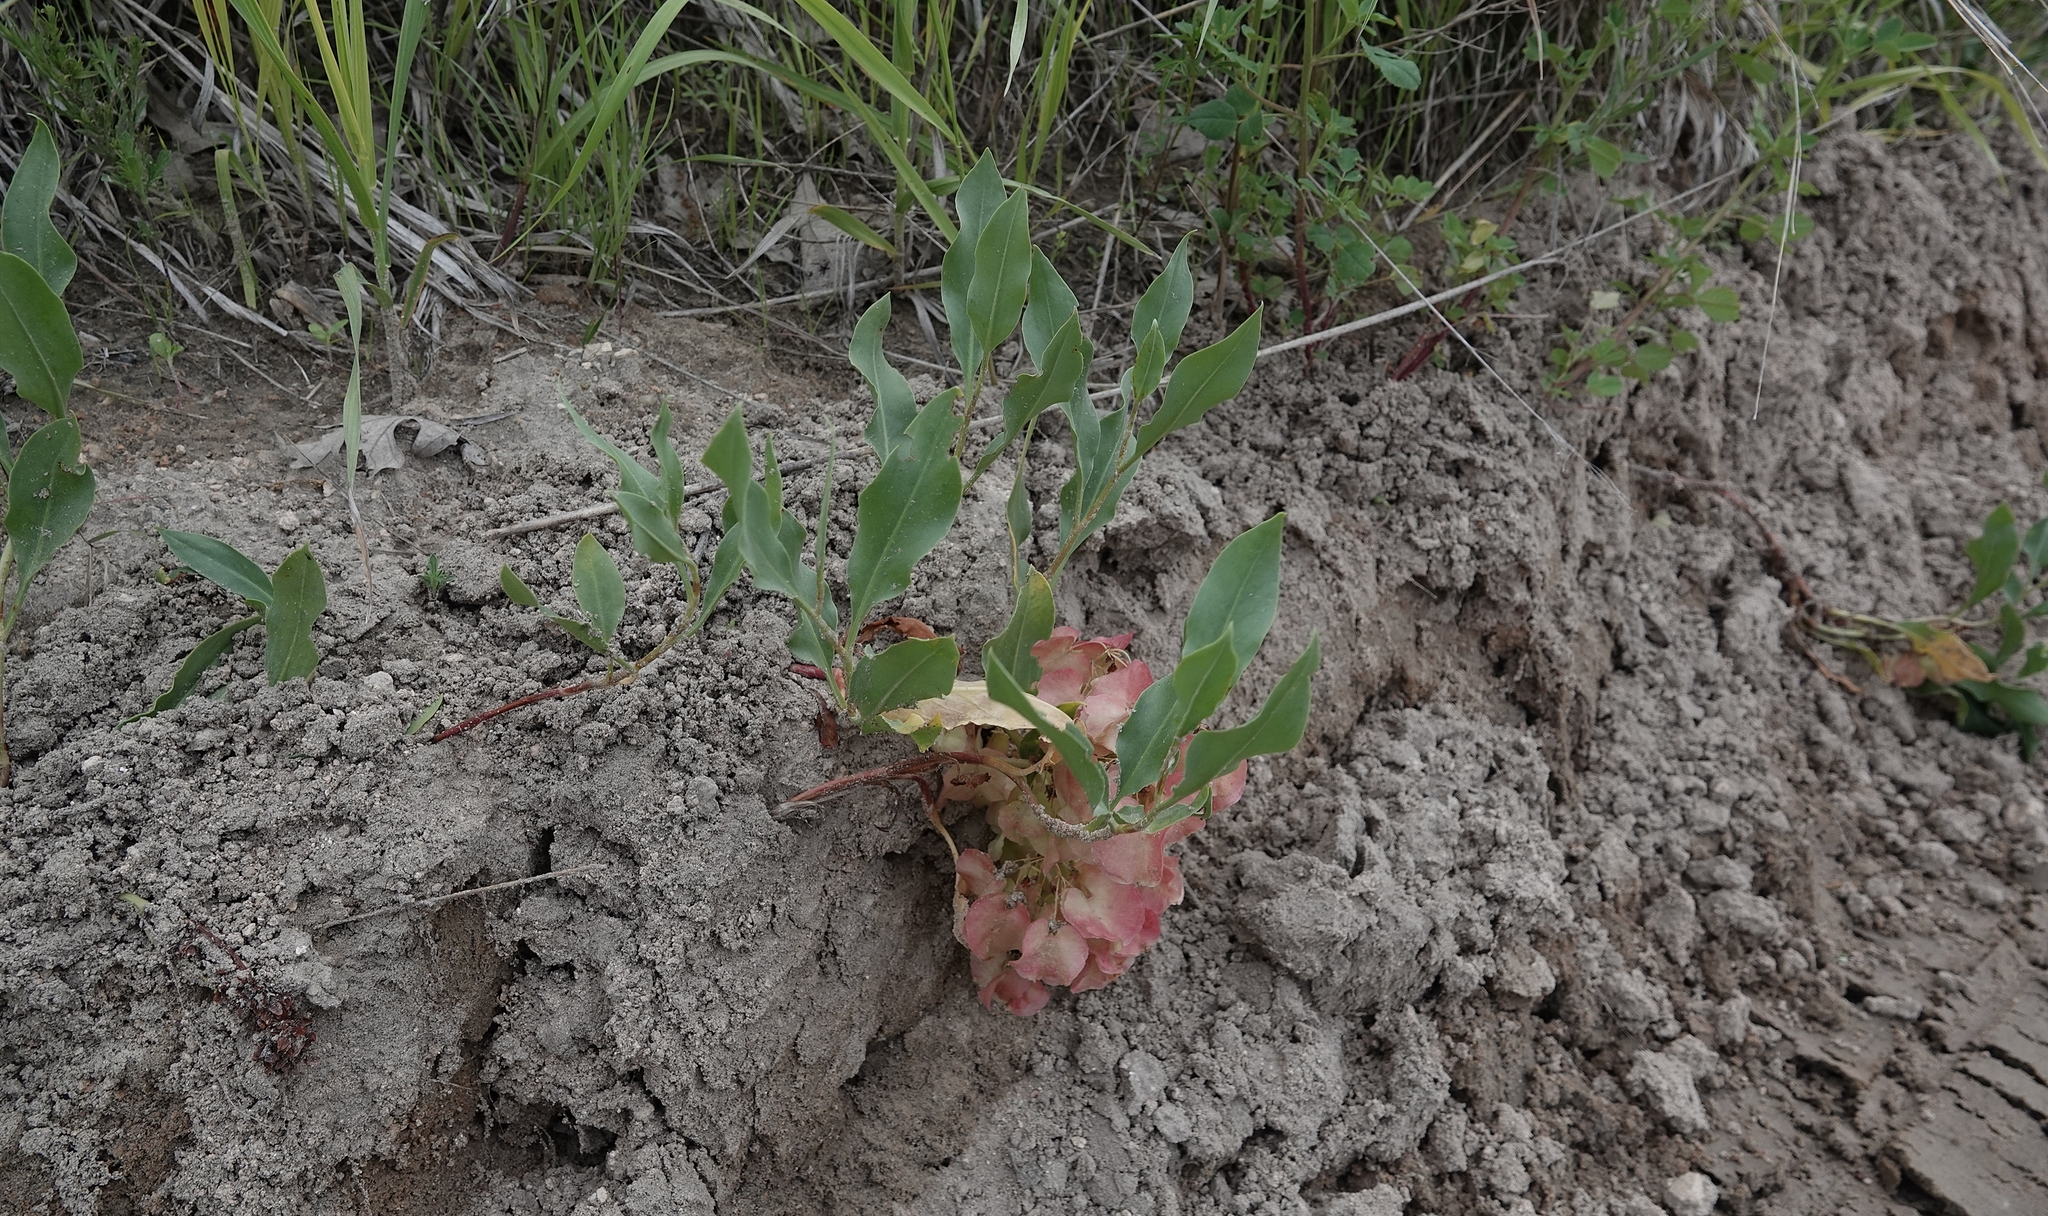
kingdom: Plantae
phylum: Tracheophyta
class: Magnoliopsida
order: Caryophyllales
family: Polygonaceae
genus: Rumex
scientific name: Rumex venosus
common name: Winged dock
